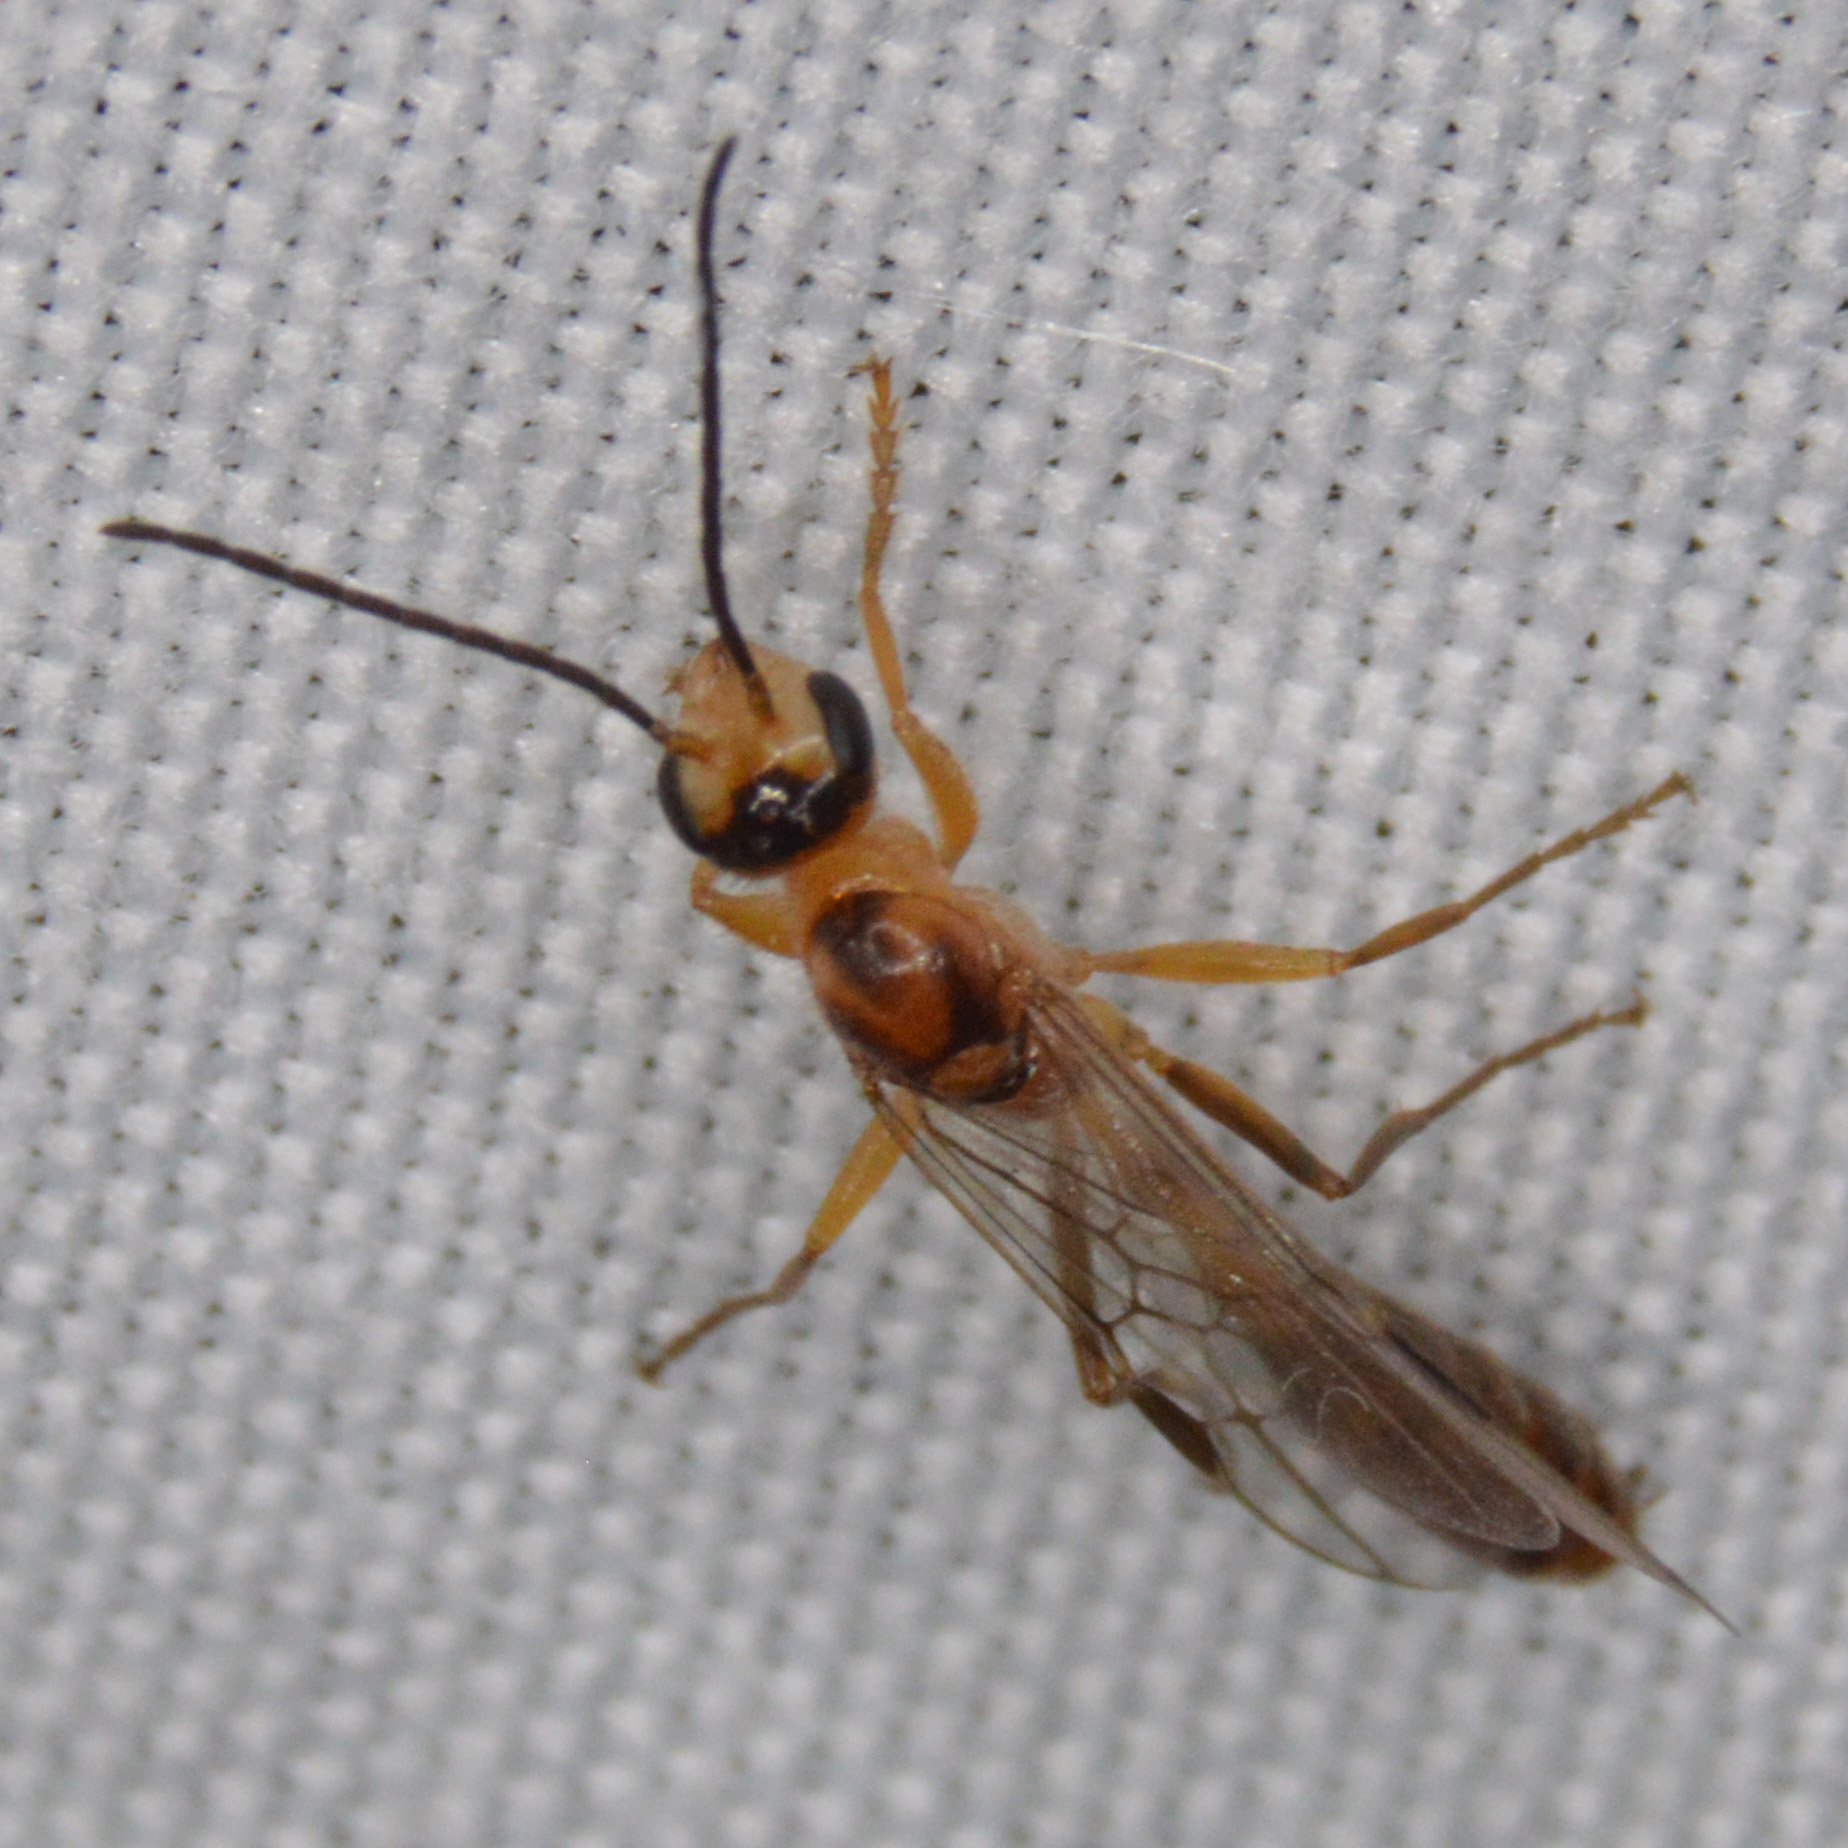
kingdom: Animalia
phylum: Arthropoda
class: Insecta
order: Hymenoptera
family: Formicidae
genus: Pseudomyrmex
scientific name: Pseudomyrmex gracilis
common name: Graceful twig ant
